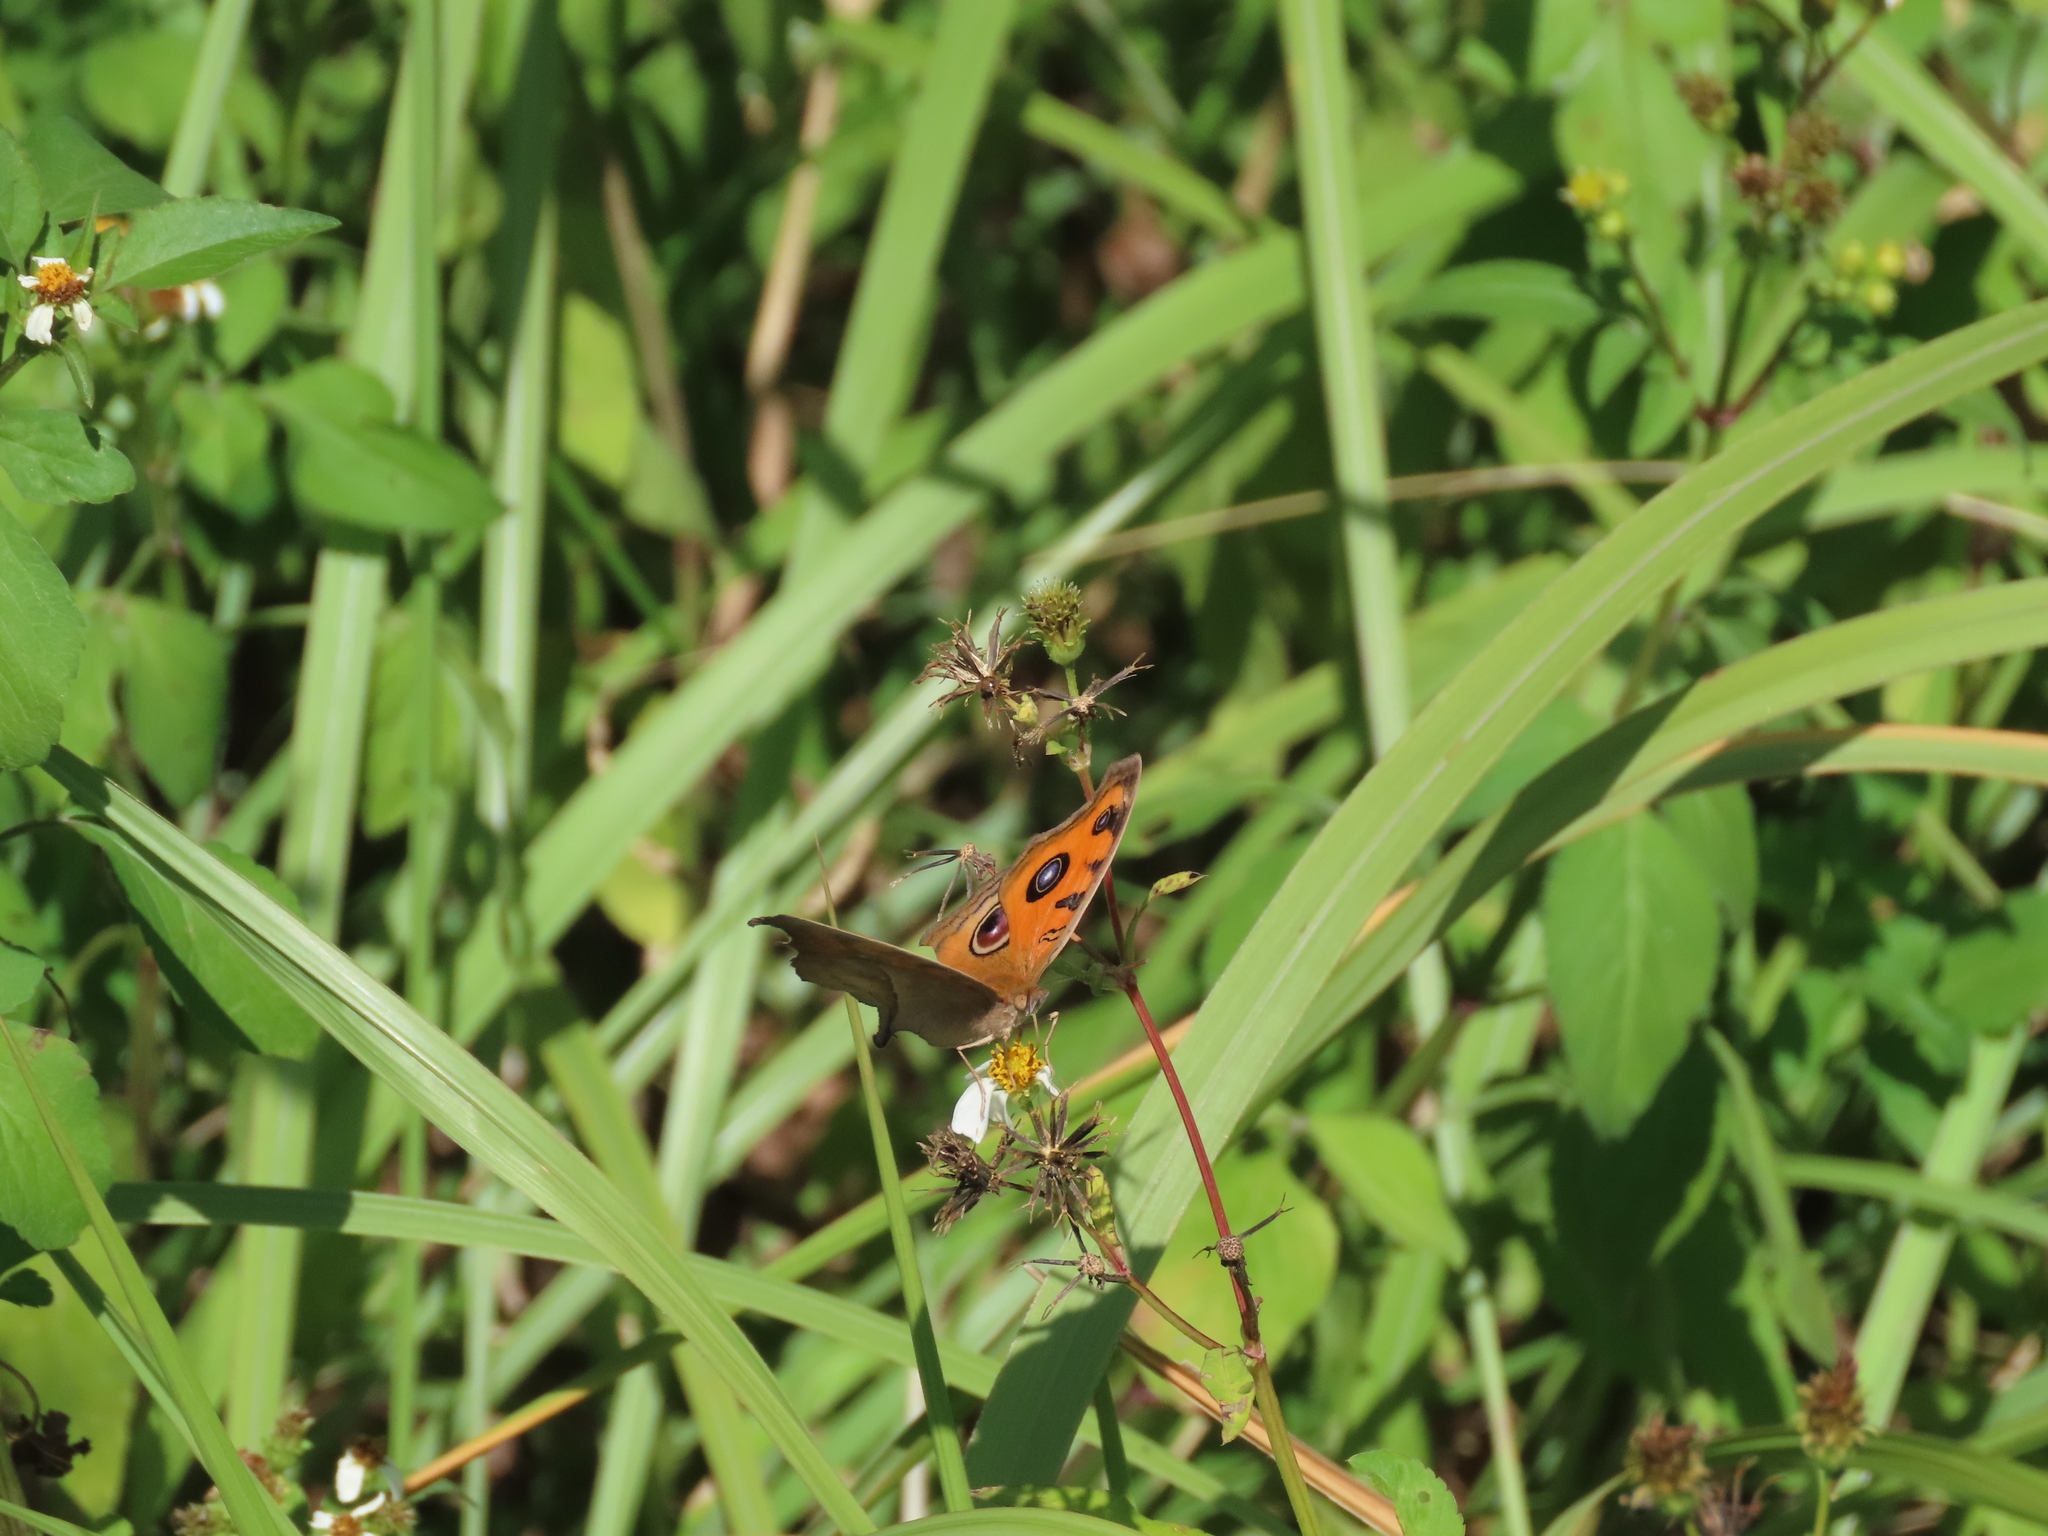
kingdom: Animalia
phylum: Arthropoda
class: Insecta
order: Lepidoptera
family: Nymphalidae
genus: Junonia
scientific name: Junonia almana
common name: Peacock pansy
